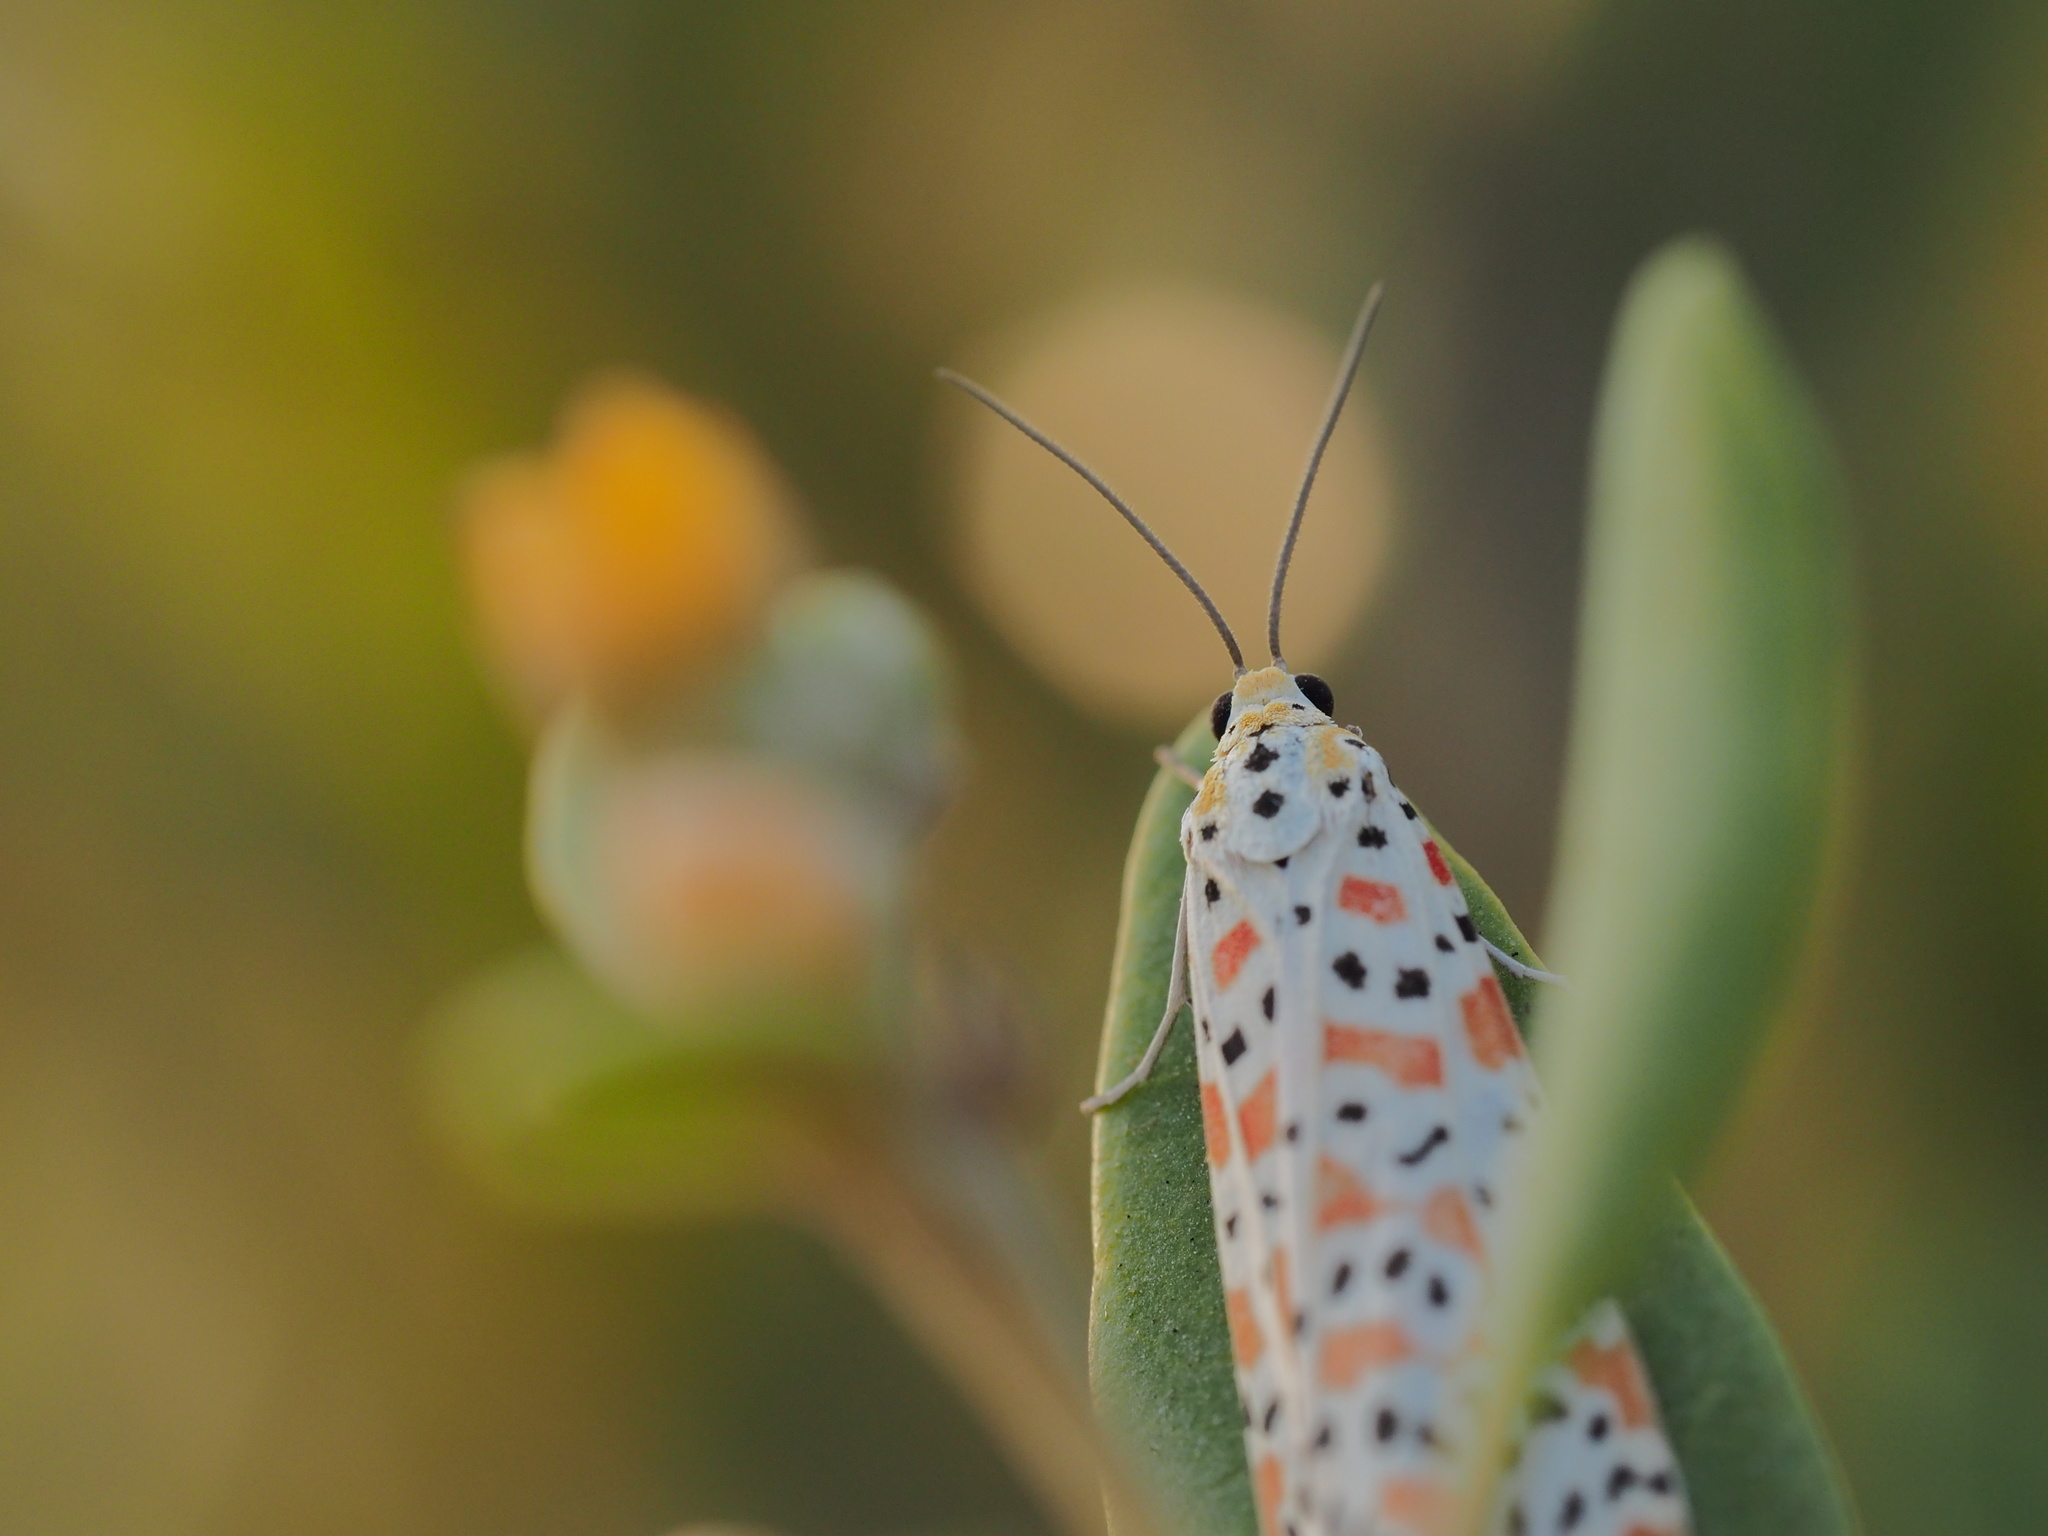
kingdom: Animalia
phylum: Arthropoda
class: Insecta
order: Lepidoptera
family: Erebidae
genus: Utetheisa
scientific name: Utetheisa pulchella
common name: Crimson speckled
